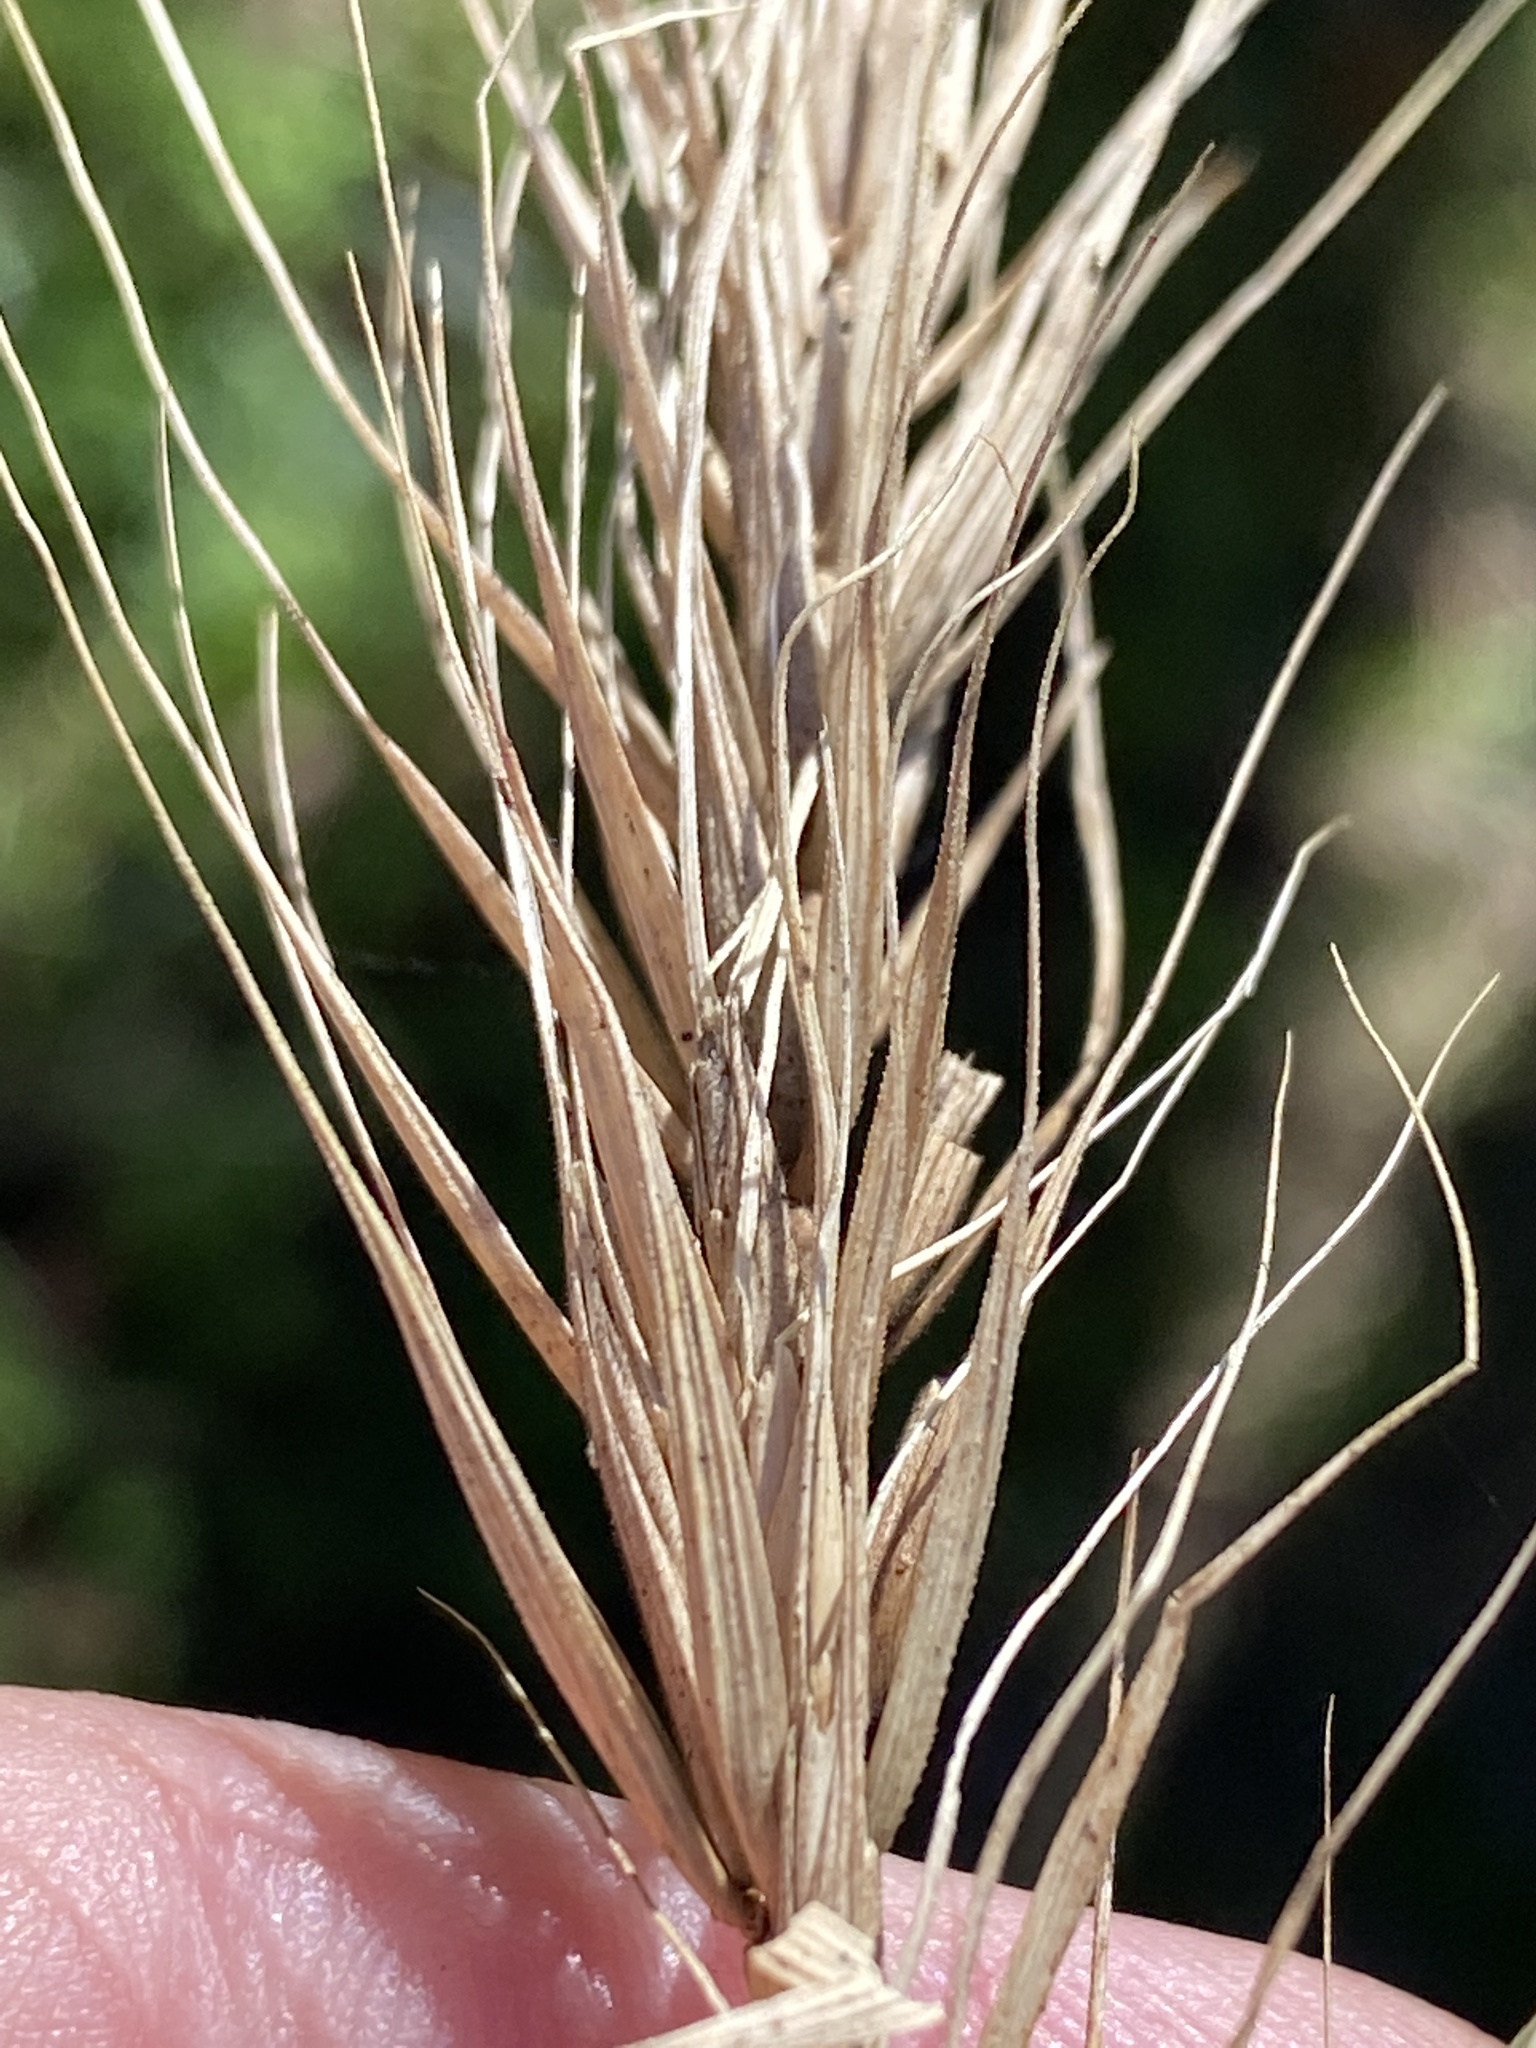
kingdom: Plantae
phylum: Tracheophyta
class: Liliopsida
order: Poales
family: Poaceae
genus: Elymus
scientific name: Elymus virginicus
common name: Common eastern wildrye
